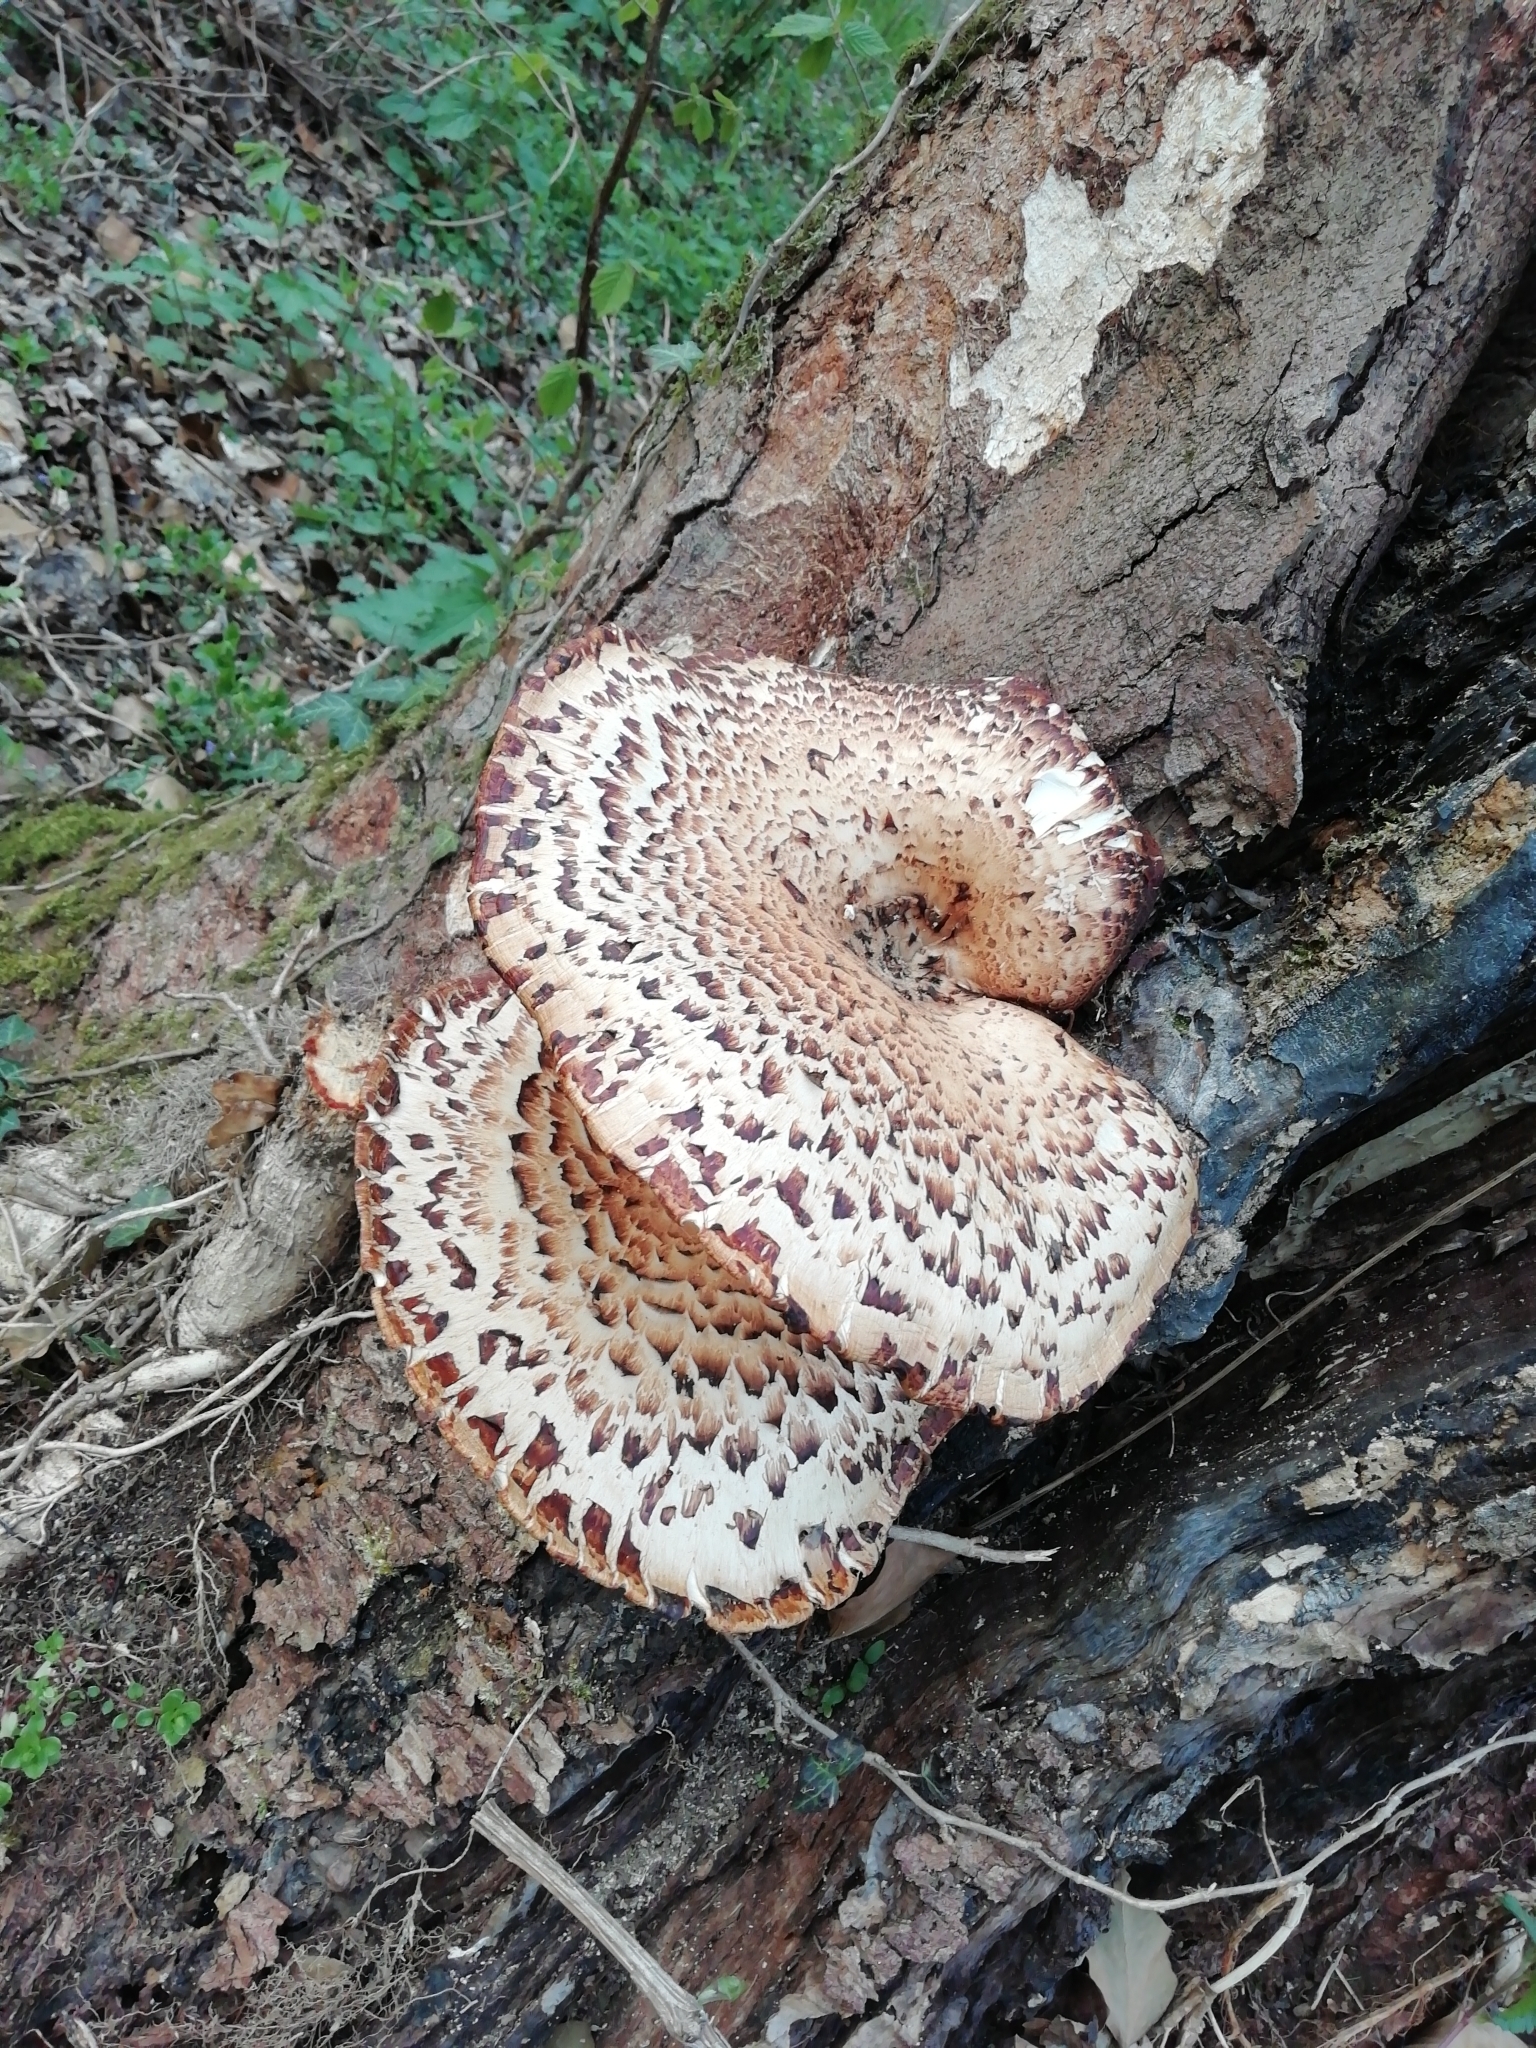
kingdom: Fungi
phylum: Basidiomycota
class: Agaricomycetes
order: Polyporales
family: Polyporaceae
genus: Cerioporus
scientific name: Cerioporus squamosus
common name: Dryad's saddle
